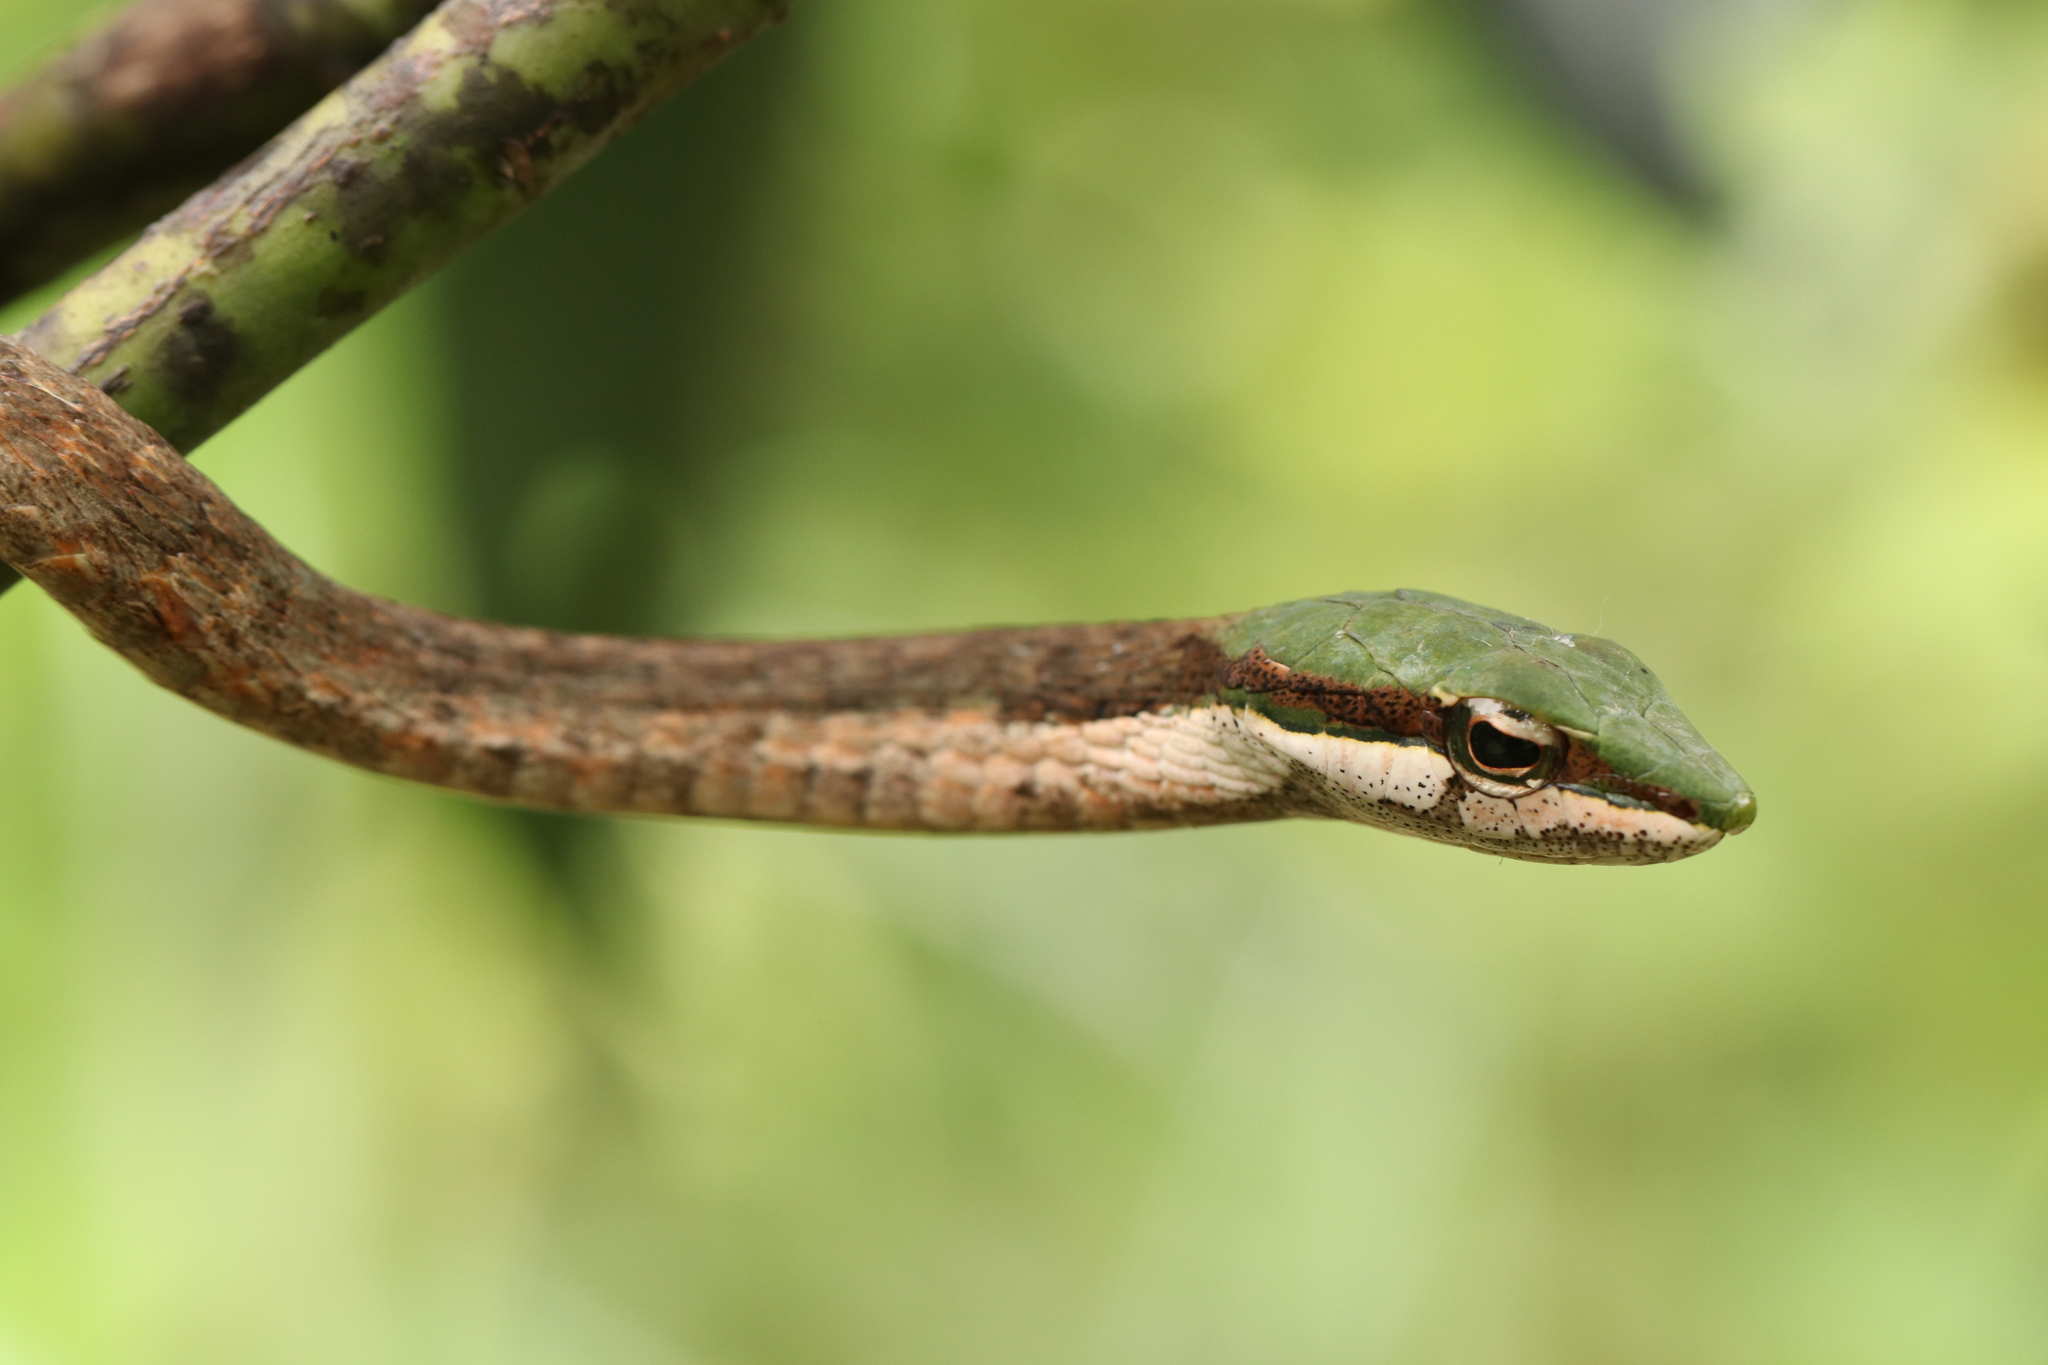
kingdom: Animalia
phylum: Chordata
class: Squamata
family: Colubridae
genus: Thelotornis
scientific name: Thelotornis mossambicanus
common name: Eastern twig snake
